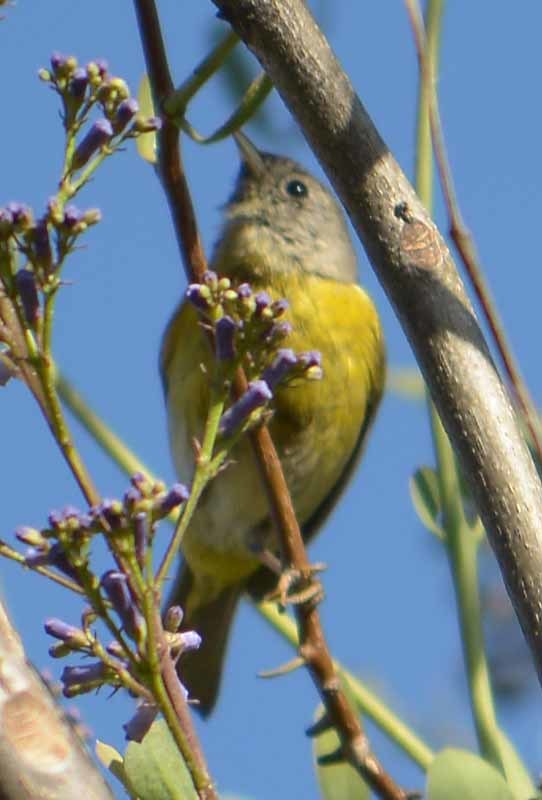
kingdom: Animalia
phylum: Chordata
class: Aves
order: Passeriformes
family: Parulidae
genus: Leiothlypis
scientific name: Leiothlypis ruficapilla
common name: Nashville warbler
